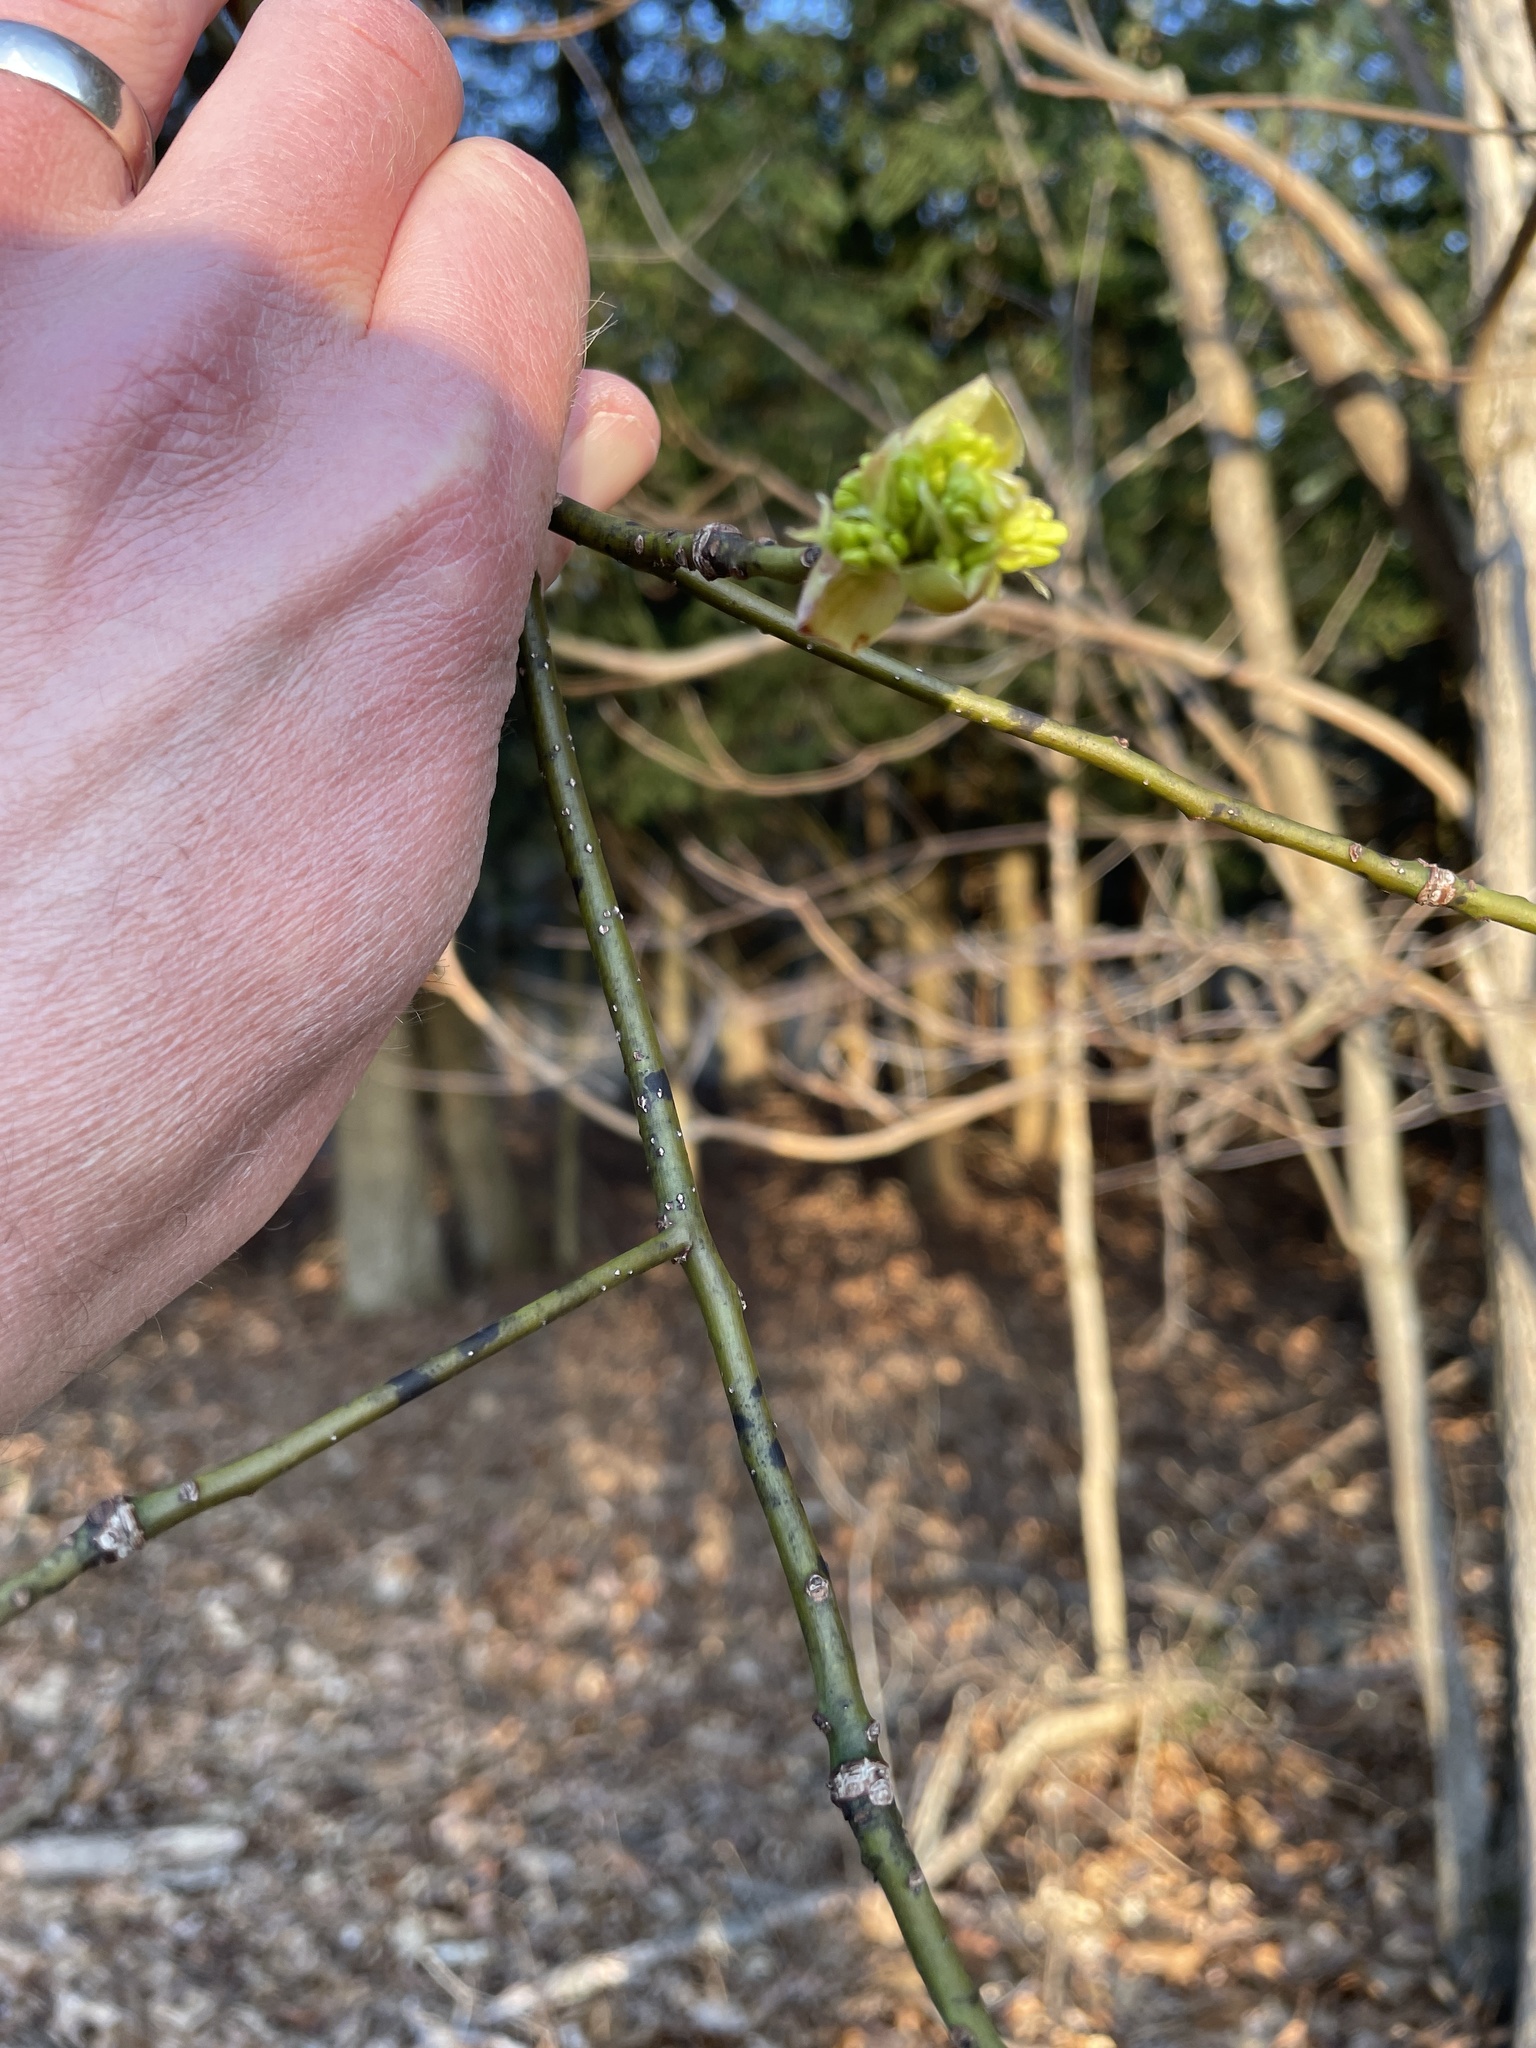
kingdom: Plantae
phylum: Tracheophyta
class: Magnoliopsida
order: Laurales
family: Lauraceae
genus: Sassafras
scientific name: Sassafras albidum
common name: Sassafras
